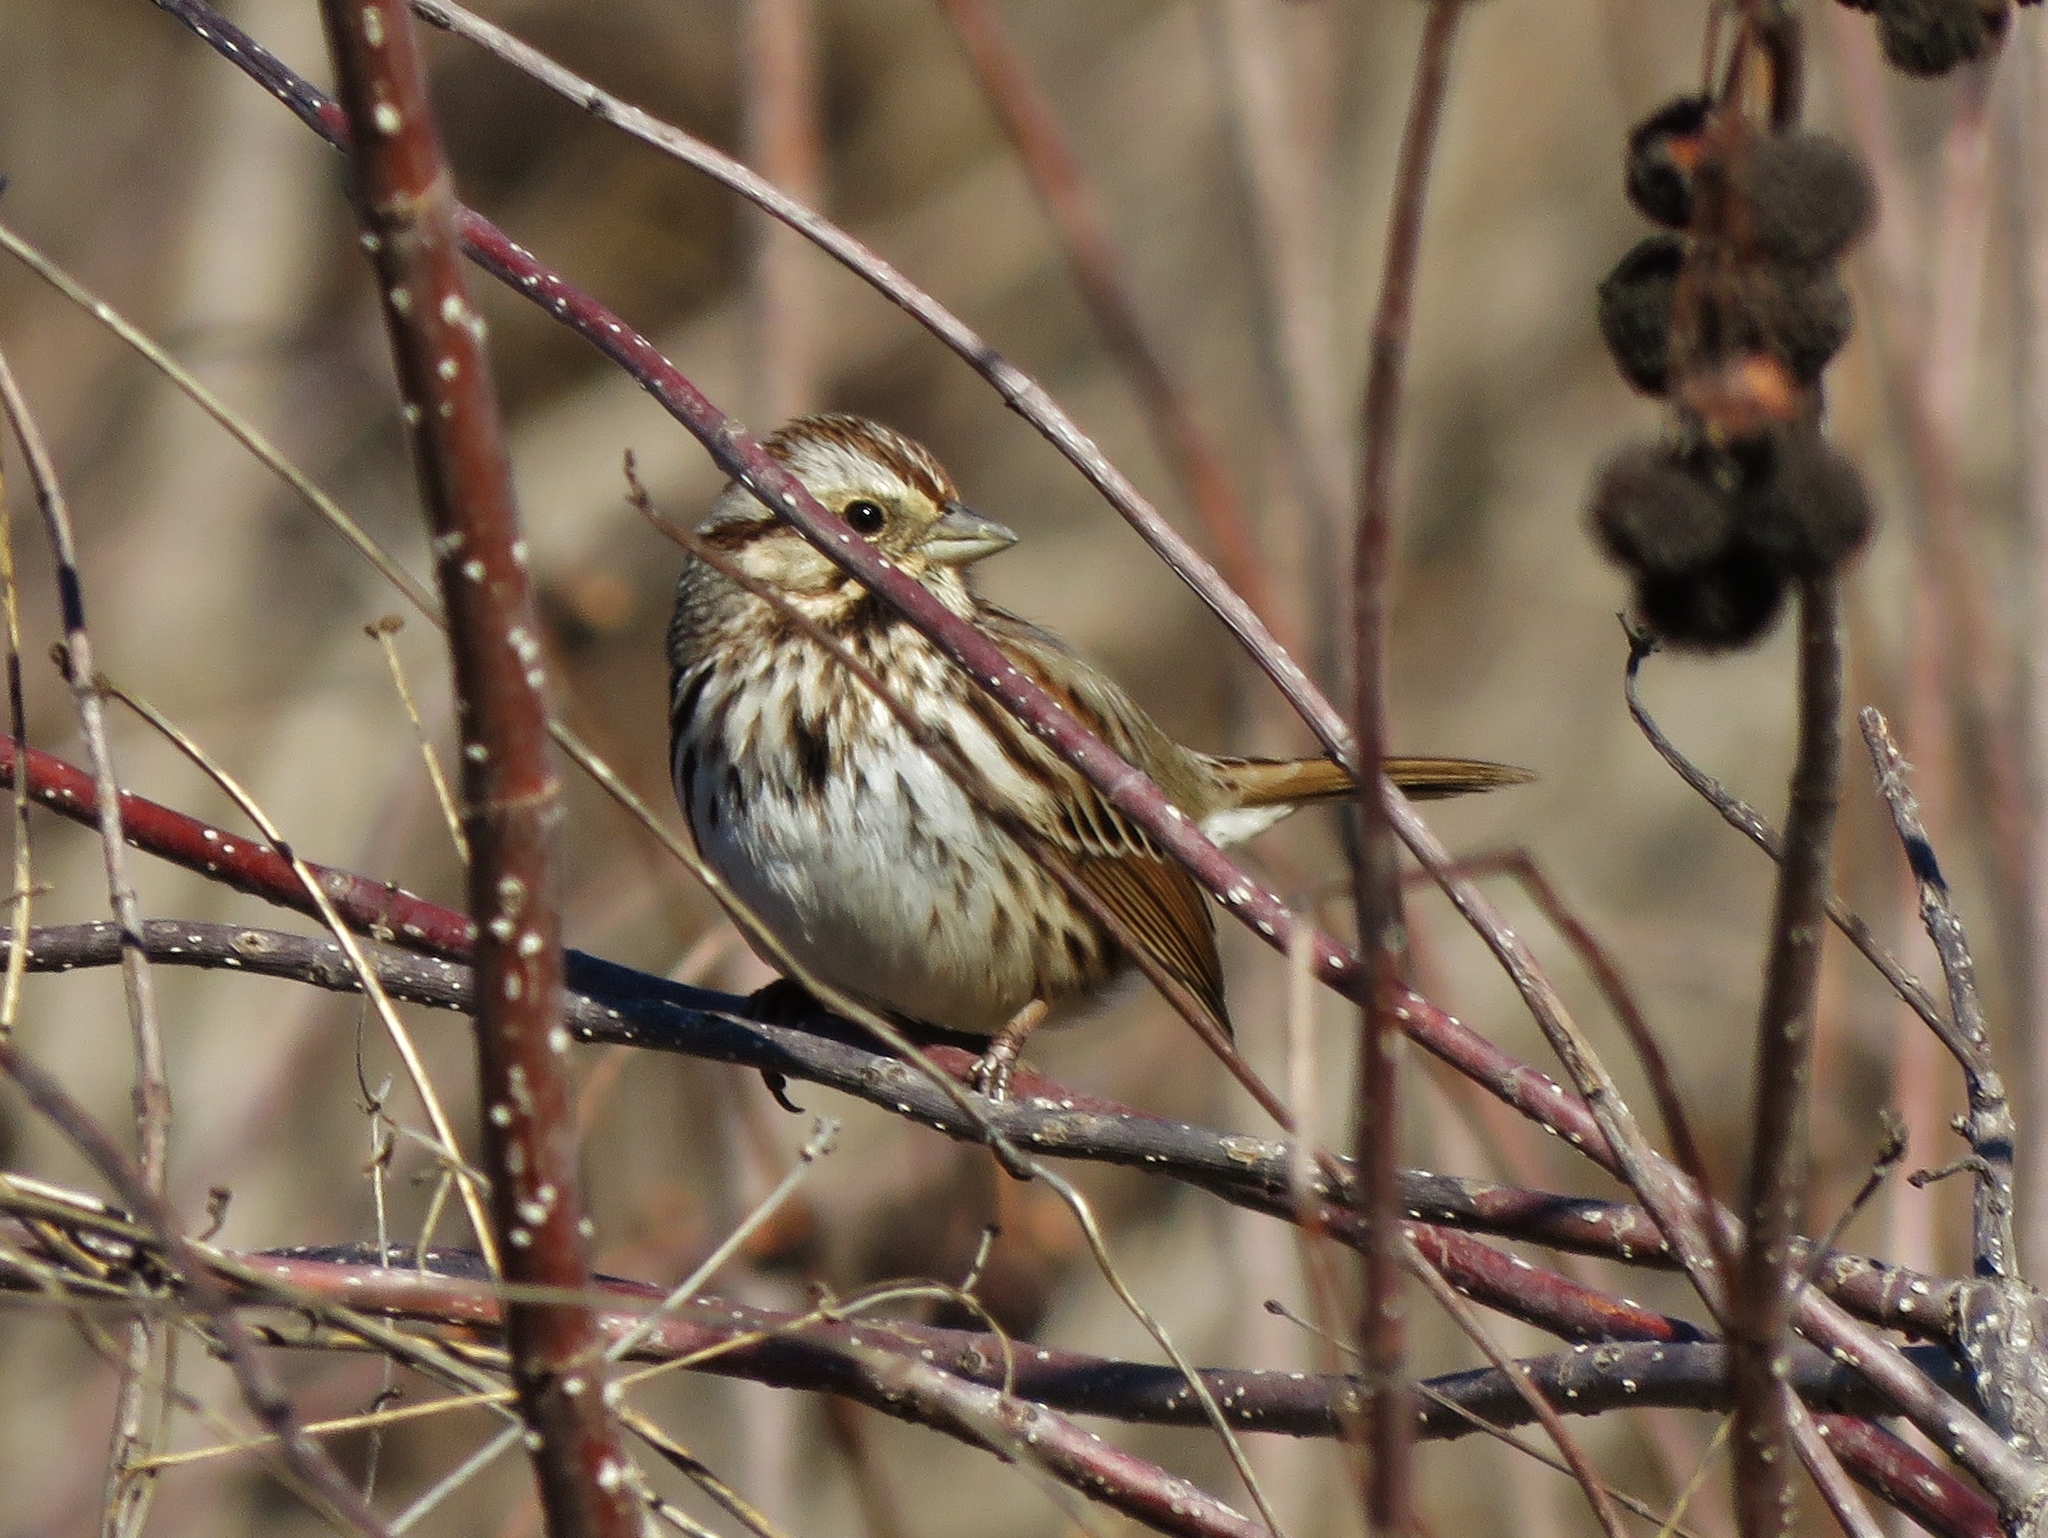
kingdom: Animalia
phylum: Chordata
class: Aves
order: Passeriformes
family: Passerellidae
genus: Melospiza
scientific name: Melospiza melodia
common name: Song sparrow
